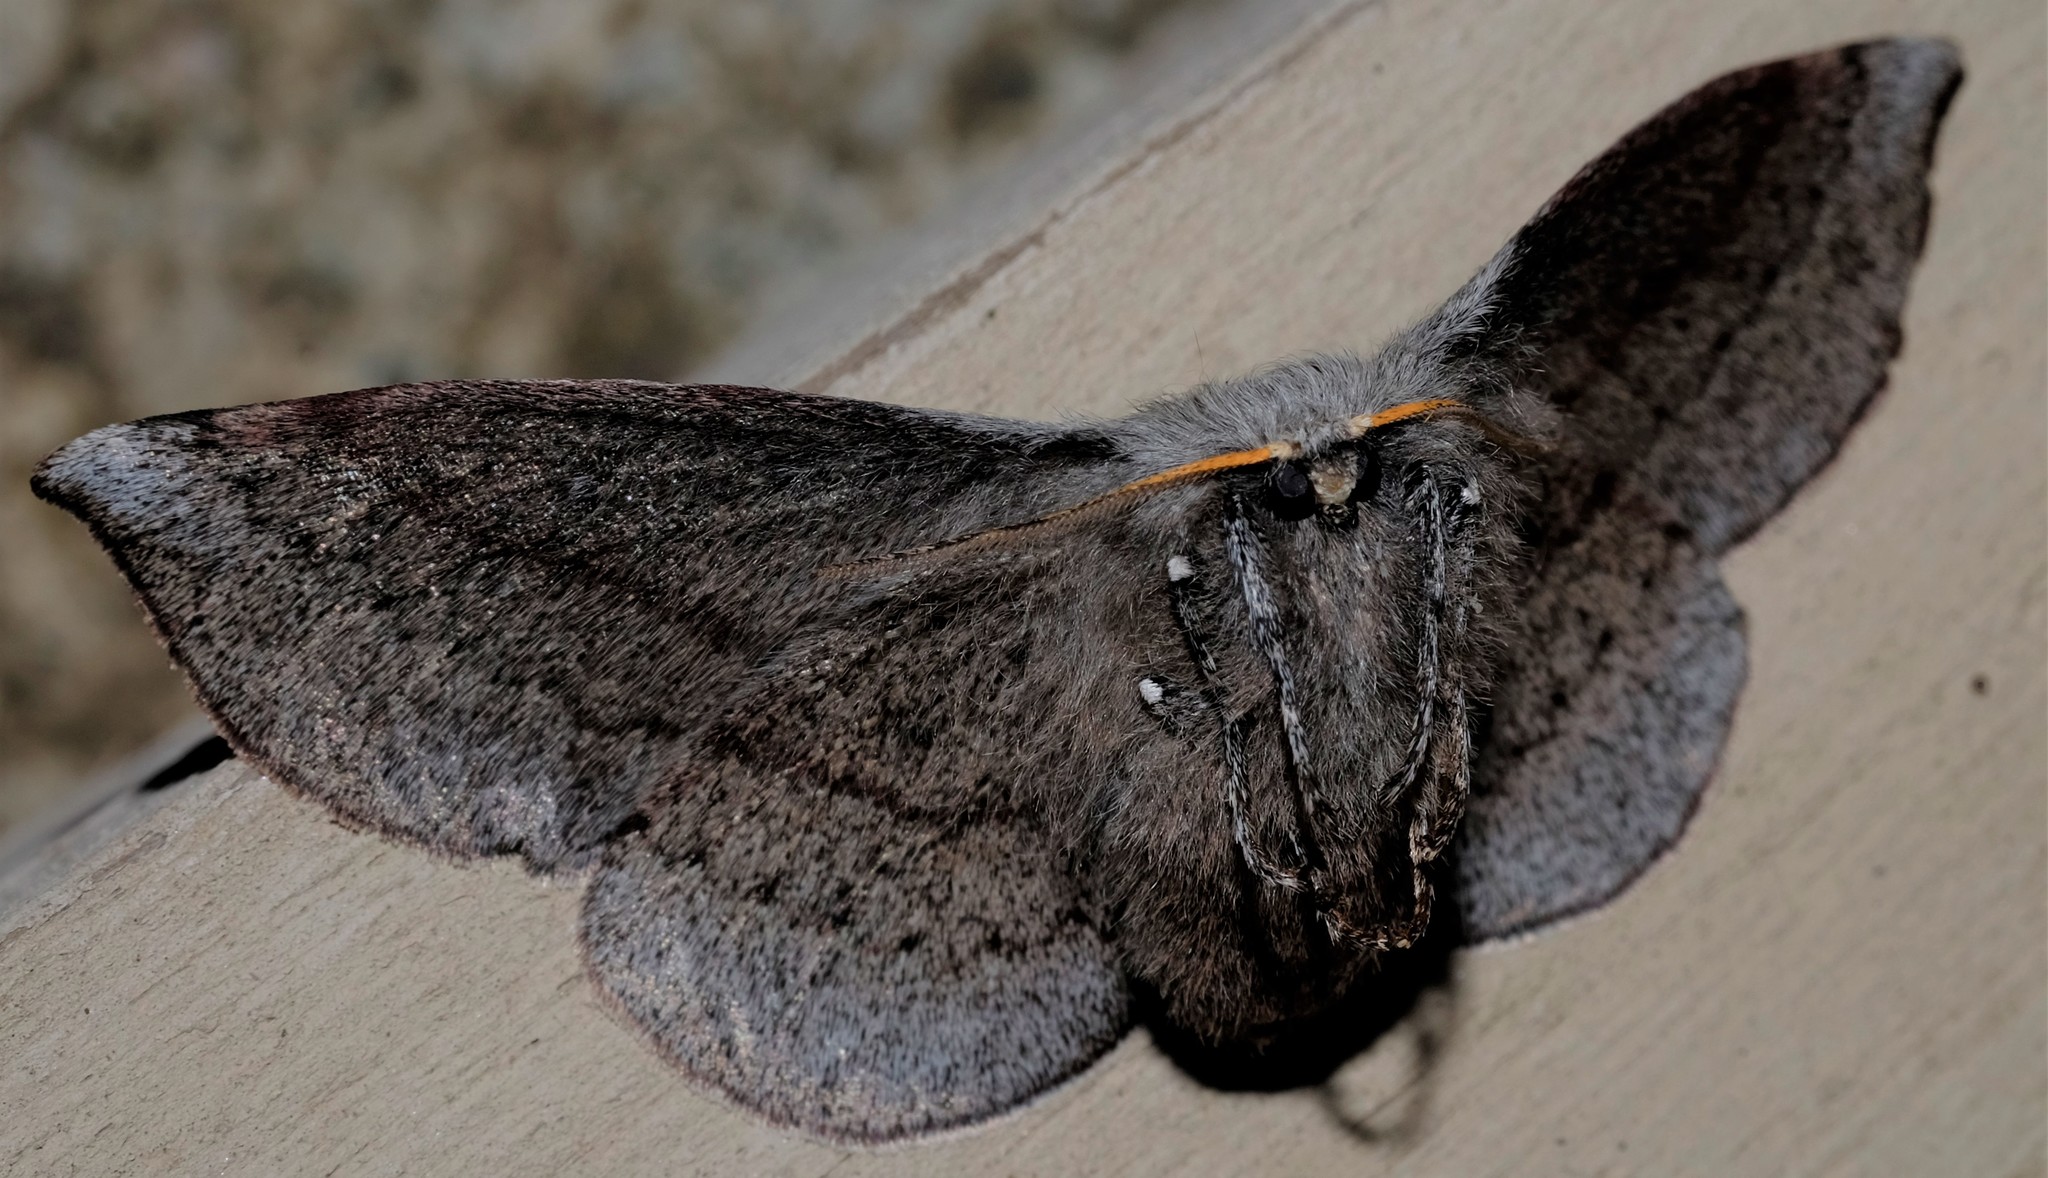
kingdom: Animalia
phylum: Arthropoda
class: Insecta
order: Lepidoptera
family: Anthelidae
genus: Anthela
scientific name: Anthela acuta
